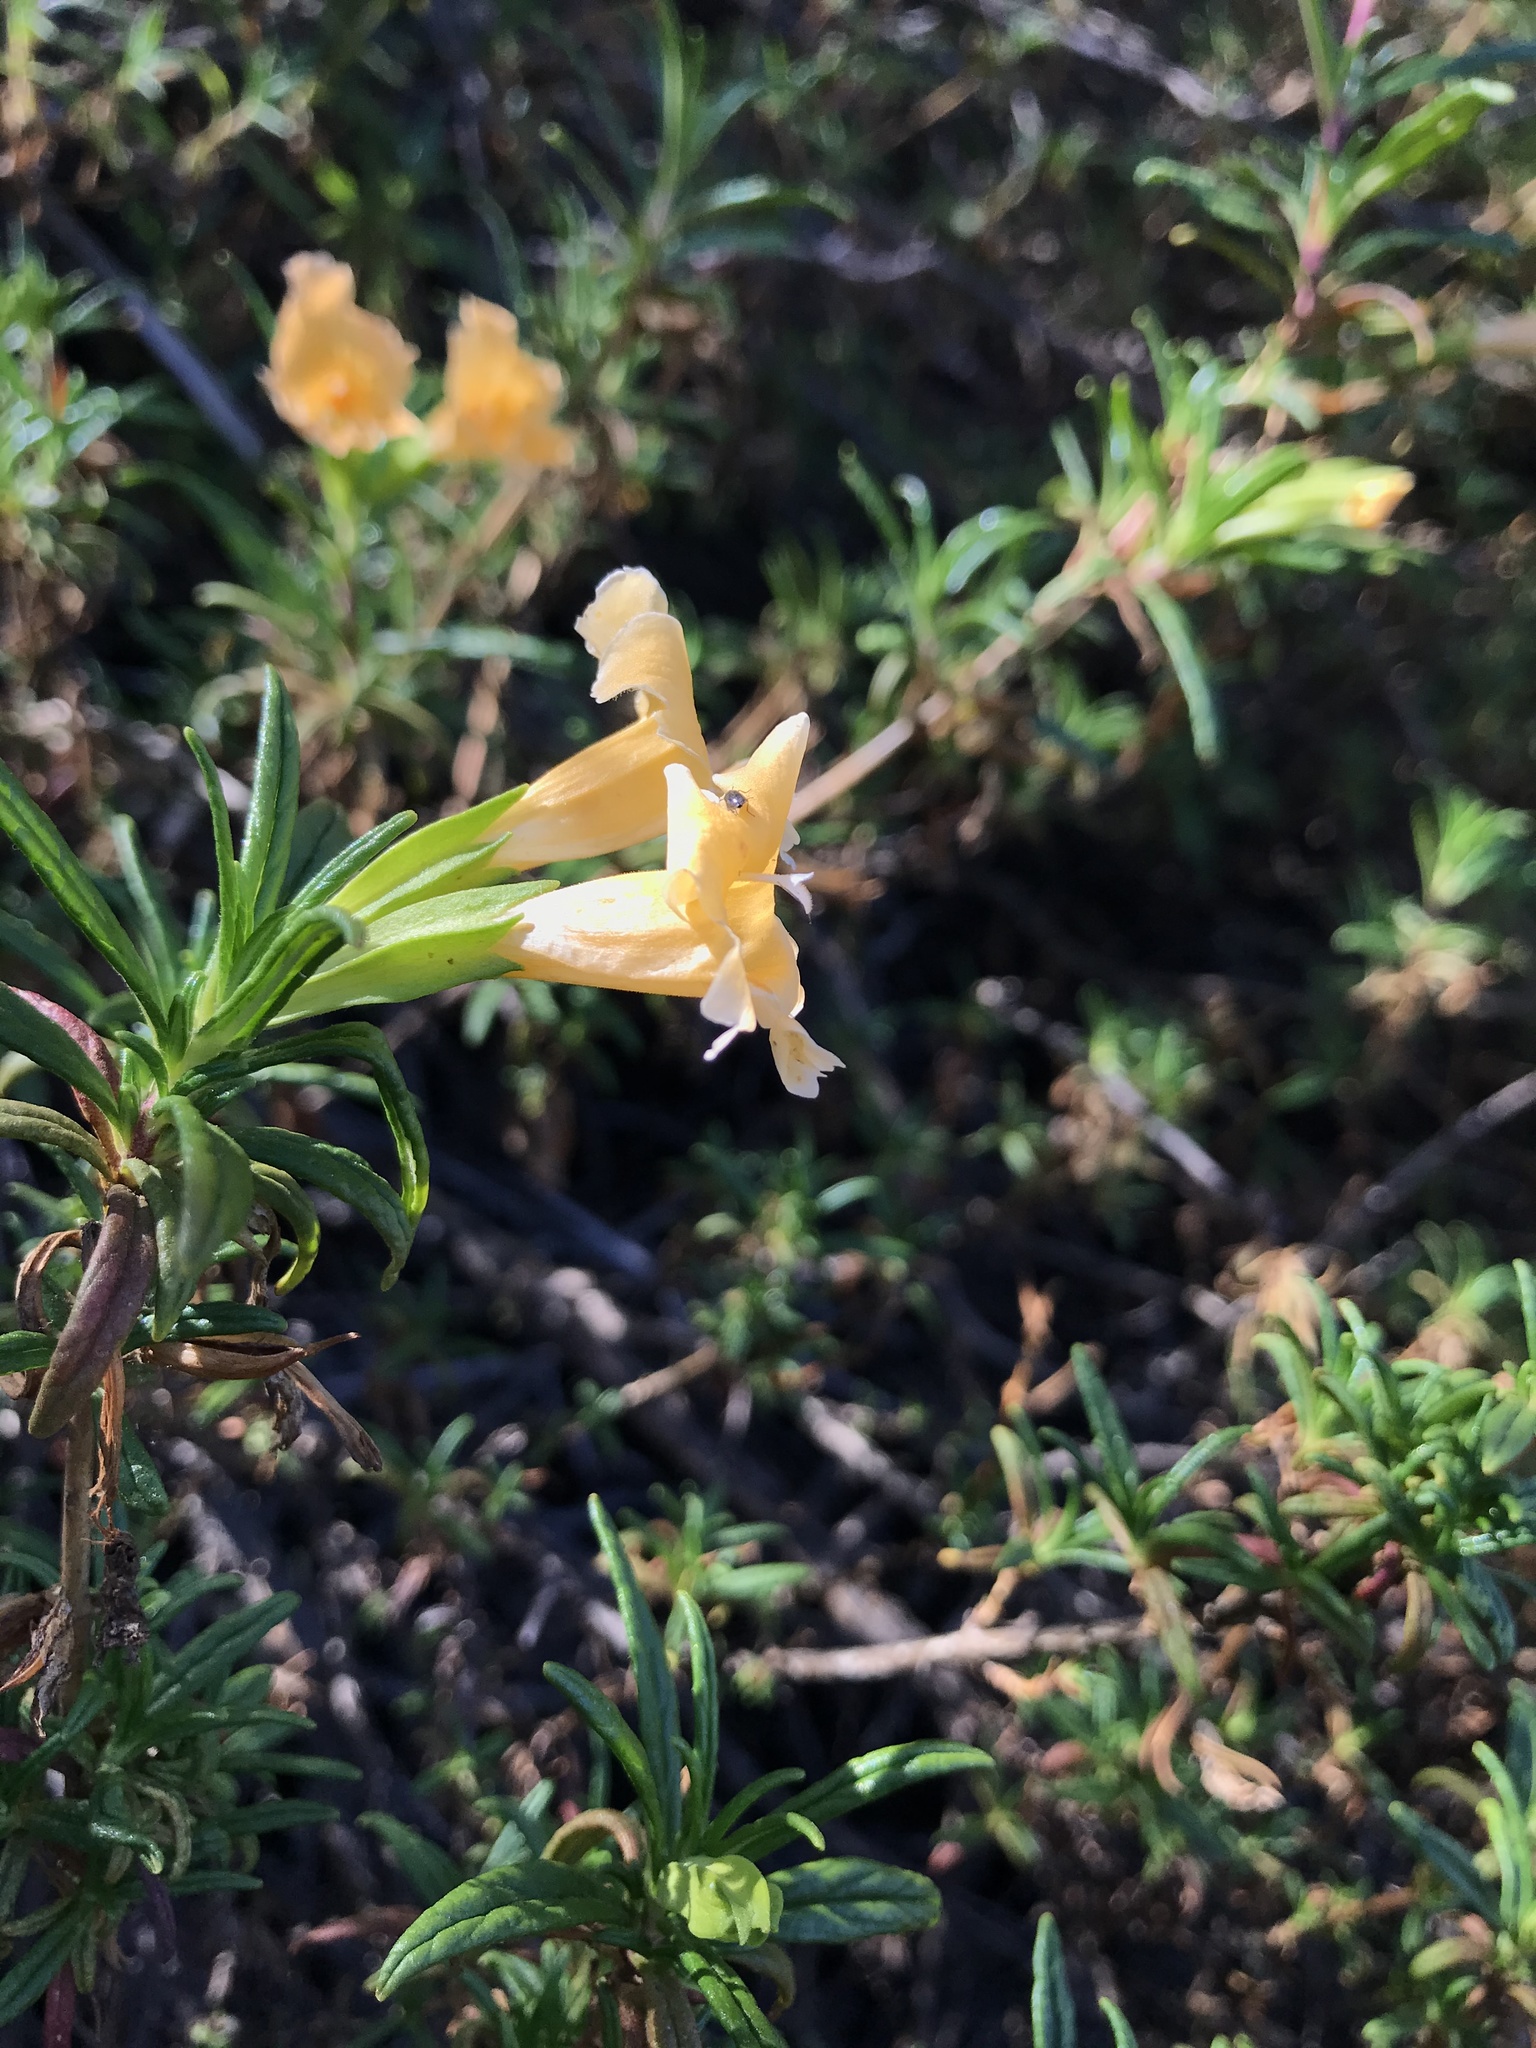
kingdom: Plantae
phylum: Tracheophyta
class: Magnoliopsida
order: Lamiales
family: Phrymaceae
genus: Diplacus
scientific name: Diplacus australis
